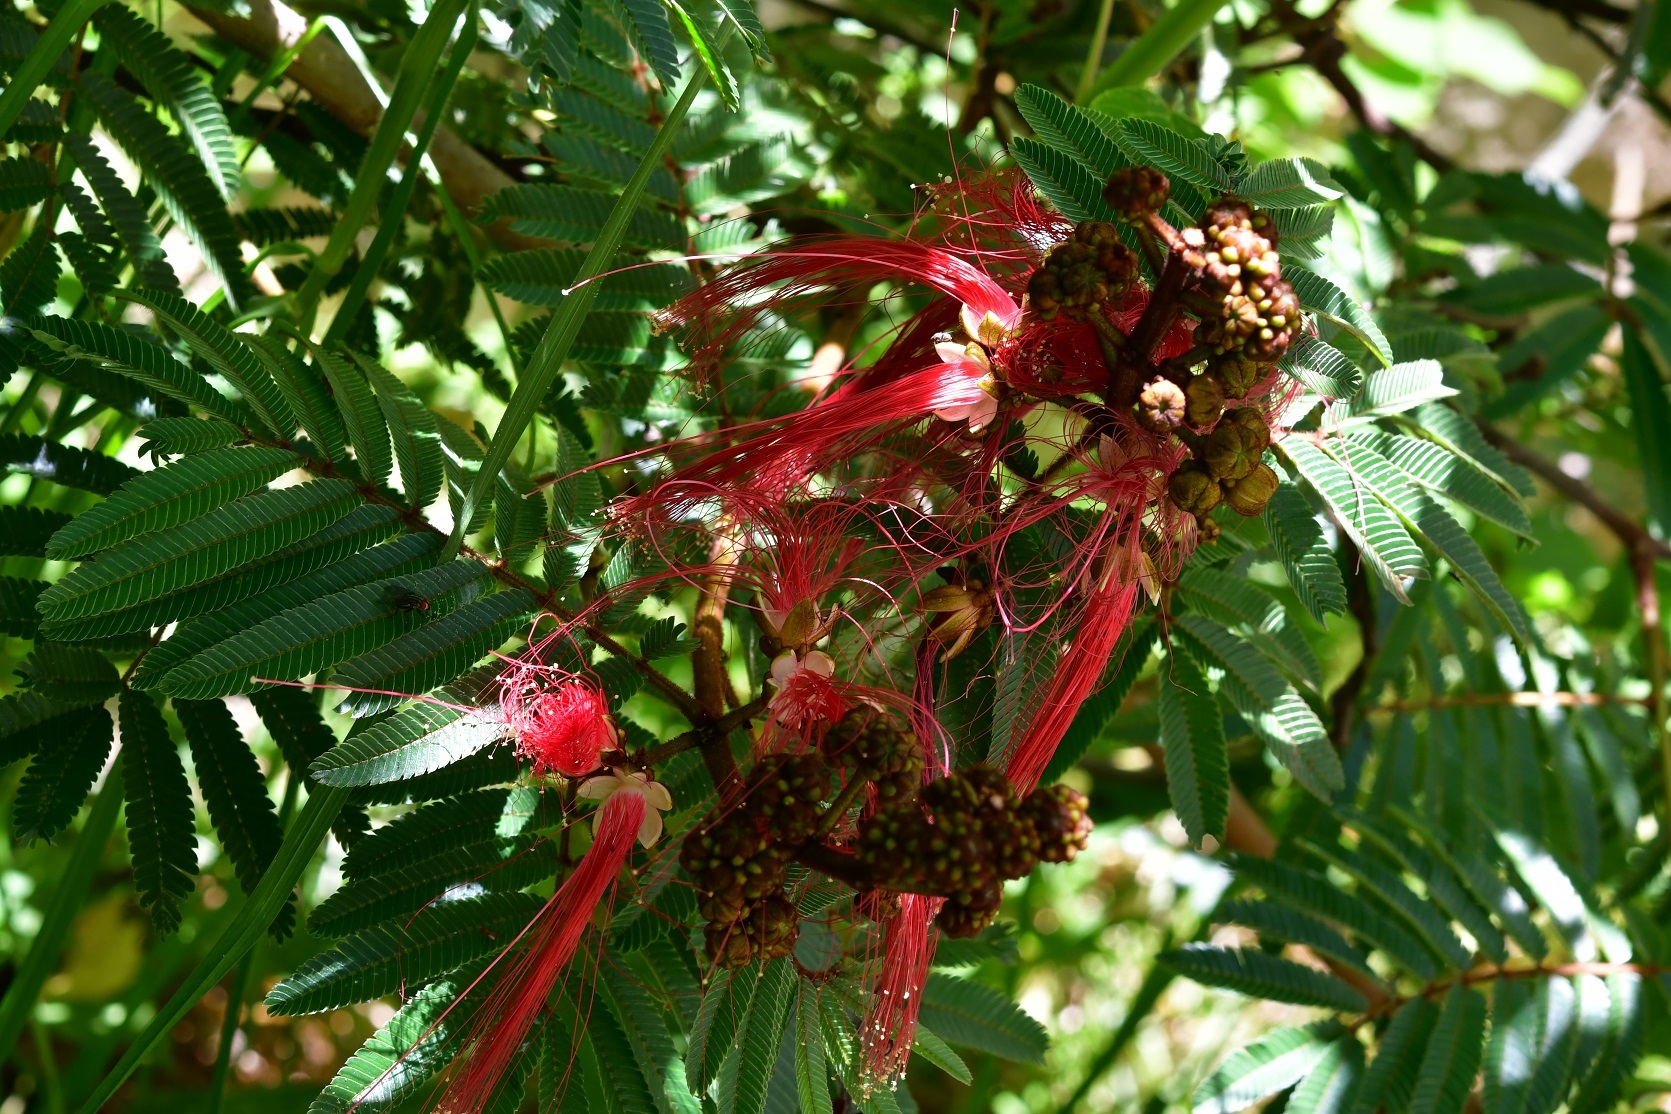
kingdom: Plantae
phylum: Tracheophyta
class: Magnoliopsida
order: Fabales
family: Fabaceae
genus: Calliandra
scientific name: Calliandra houstoniana
